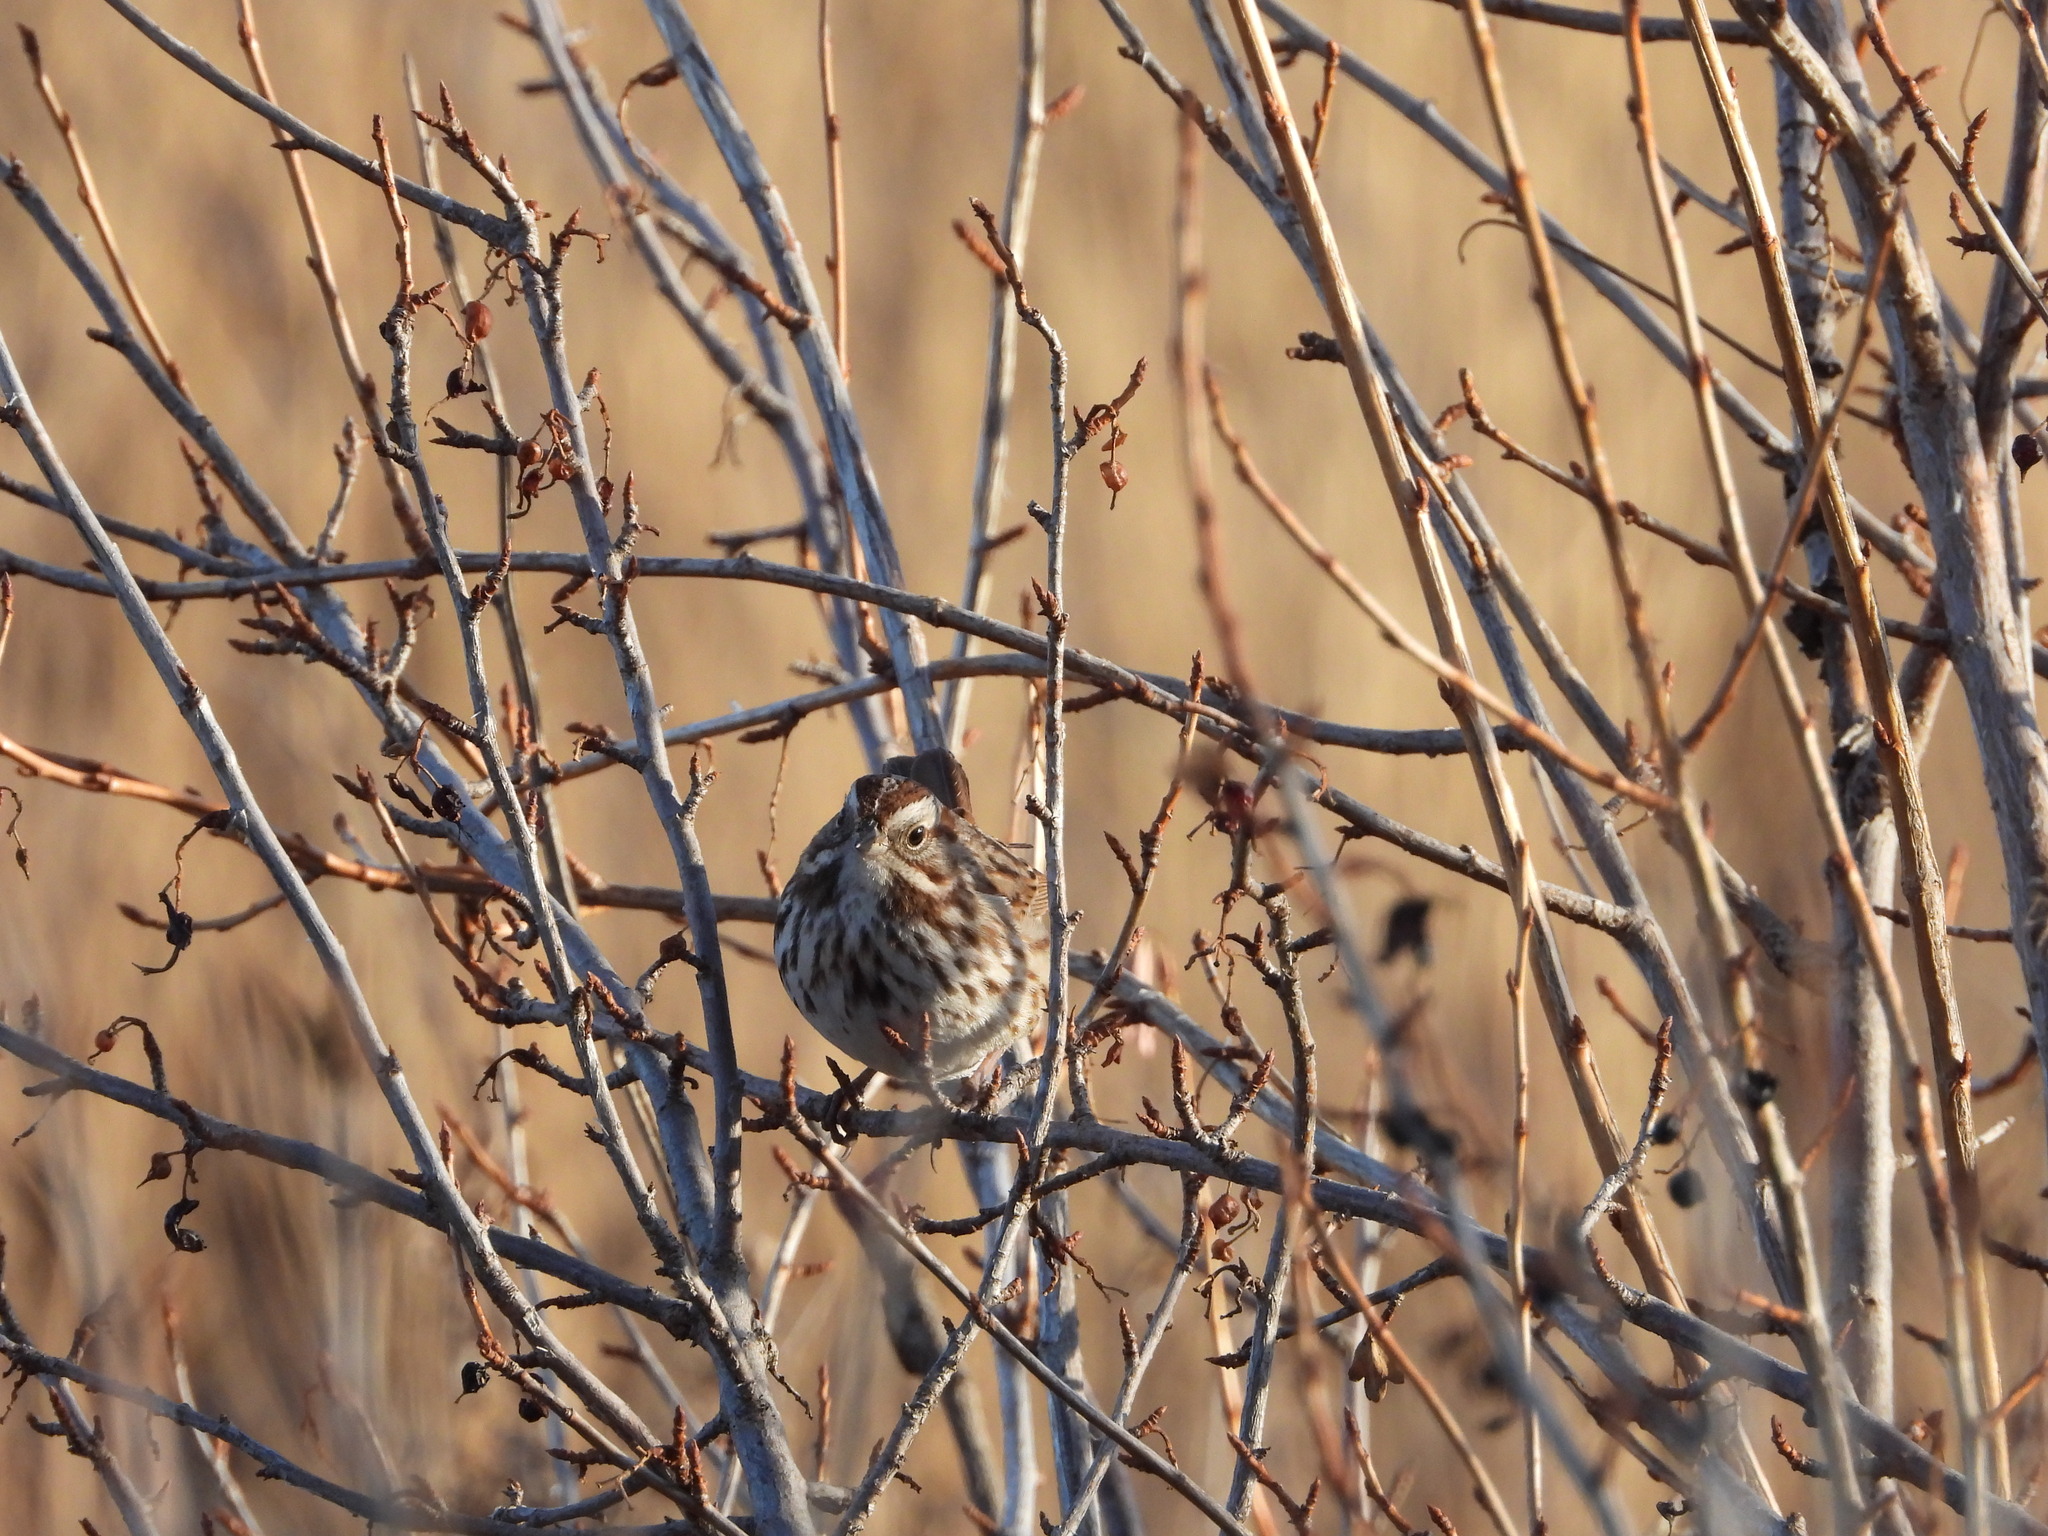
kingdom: Animalia
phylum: Chordata
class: Aves
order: Passeriformes
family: Passerellidae
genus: Melospiza
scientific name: Melospiza melodia
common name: Song sparrow
